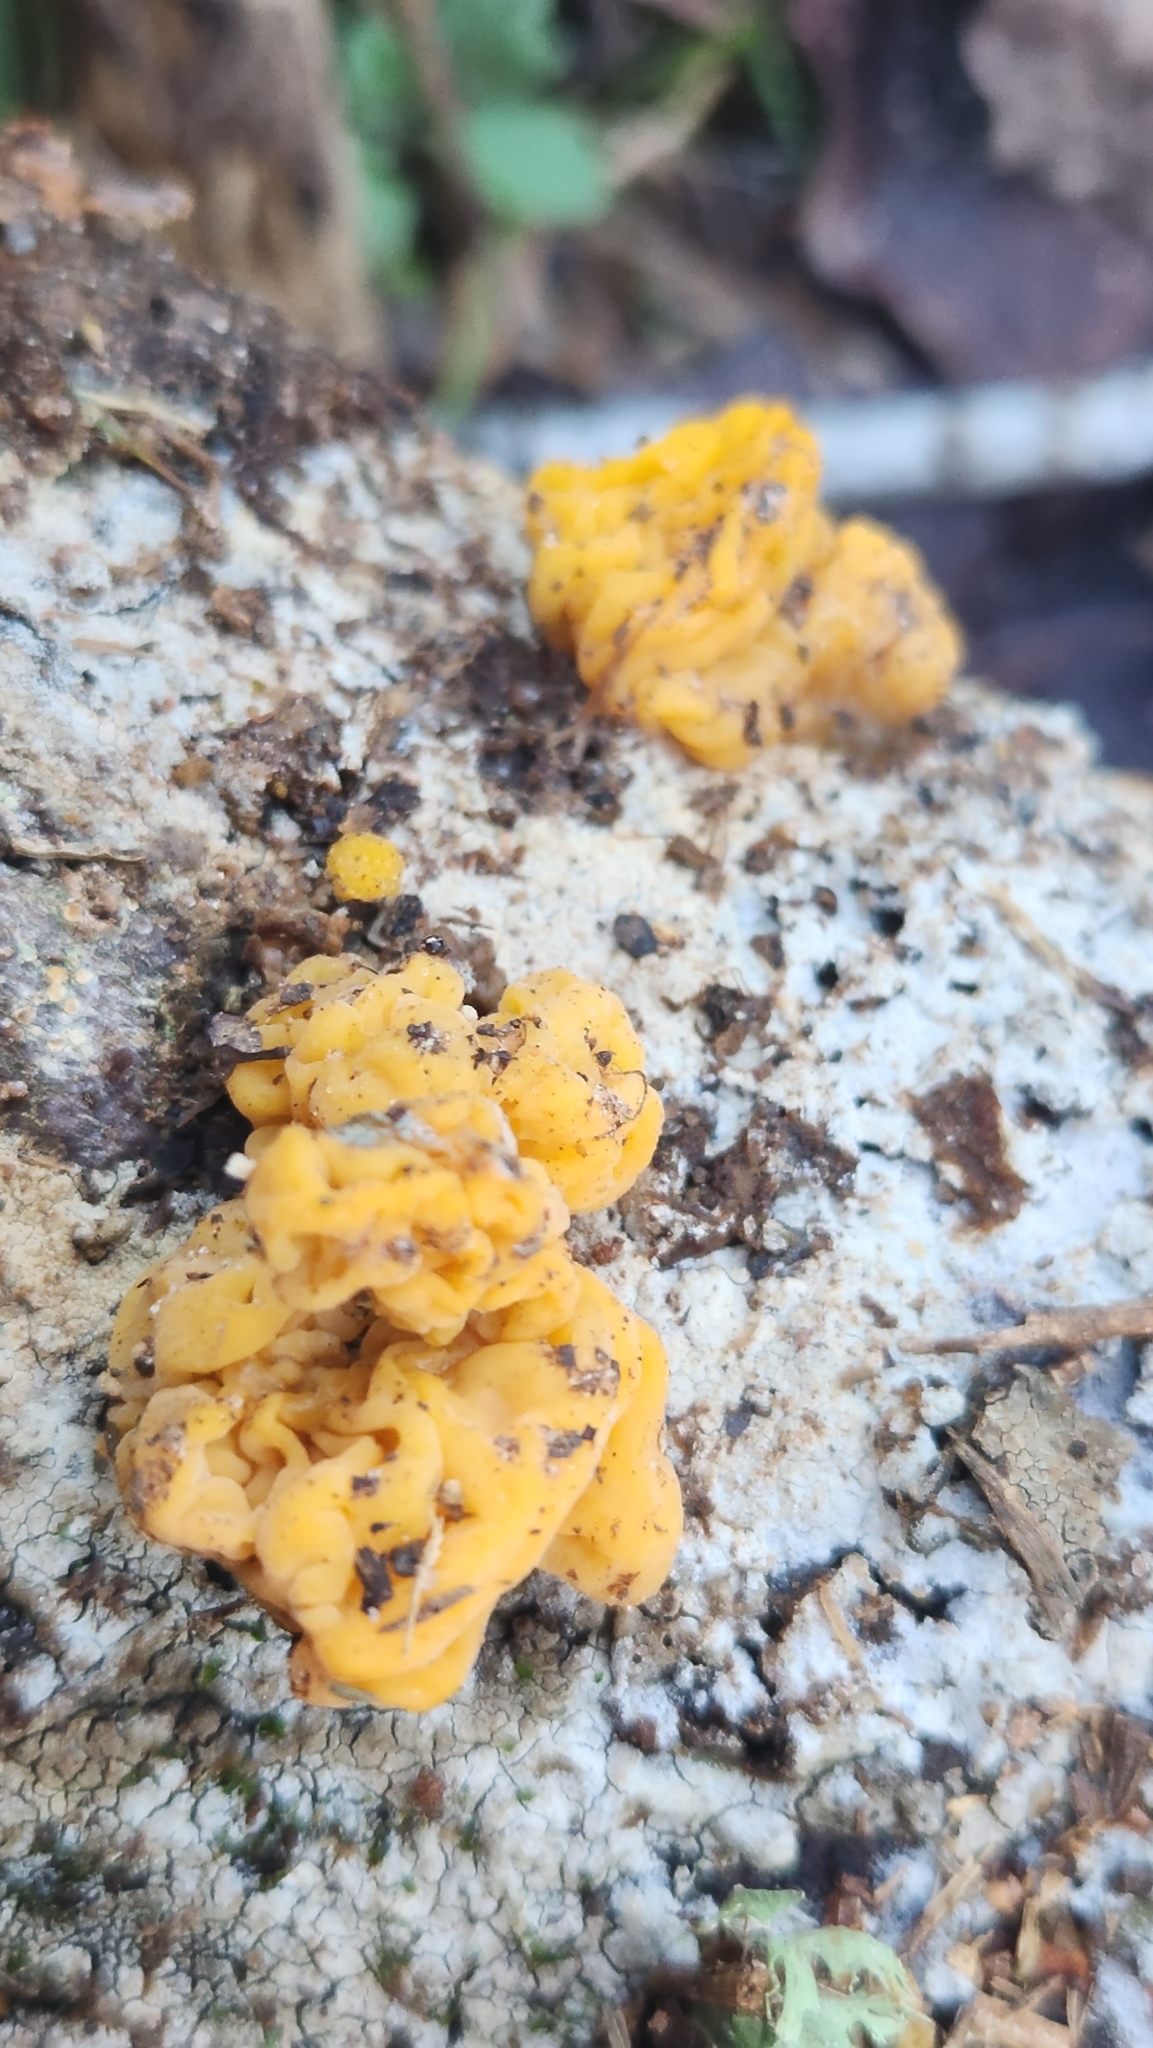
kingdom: Fungi
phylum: Basidiomycota
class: Tremellomycetes
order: Tremellales
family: Tremellaceae
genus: Tremella
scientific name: Tremella mesenterica
